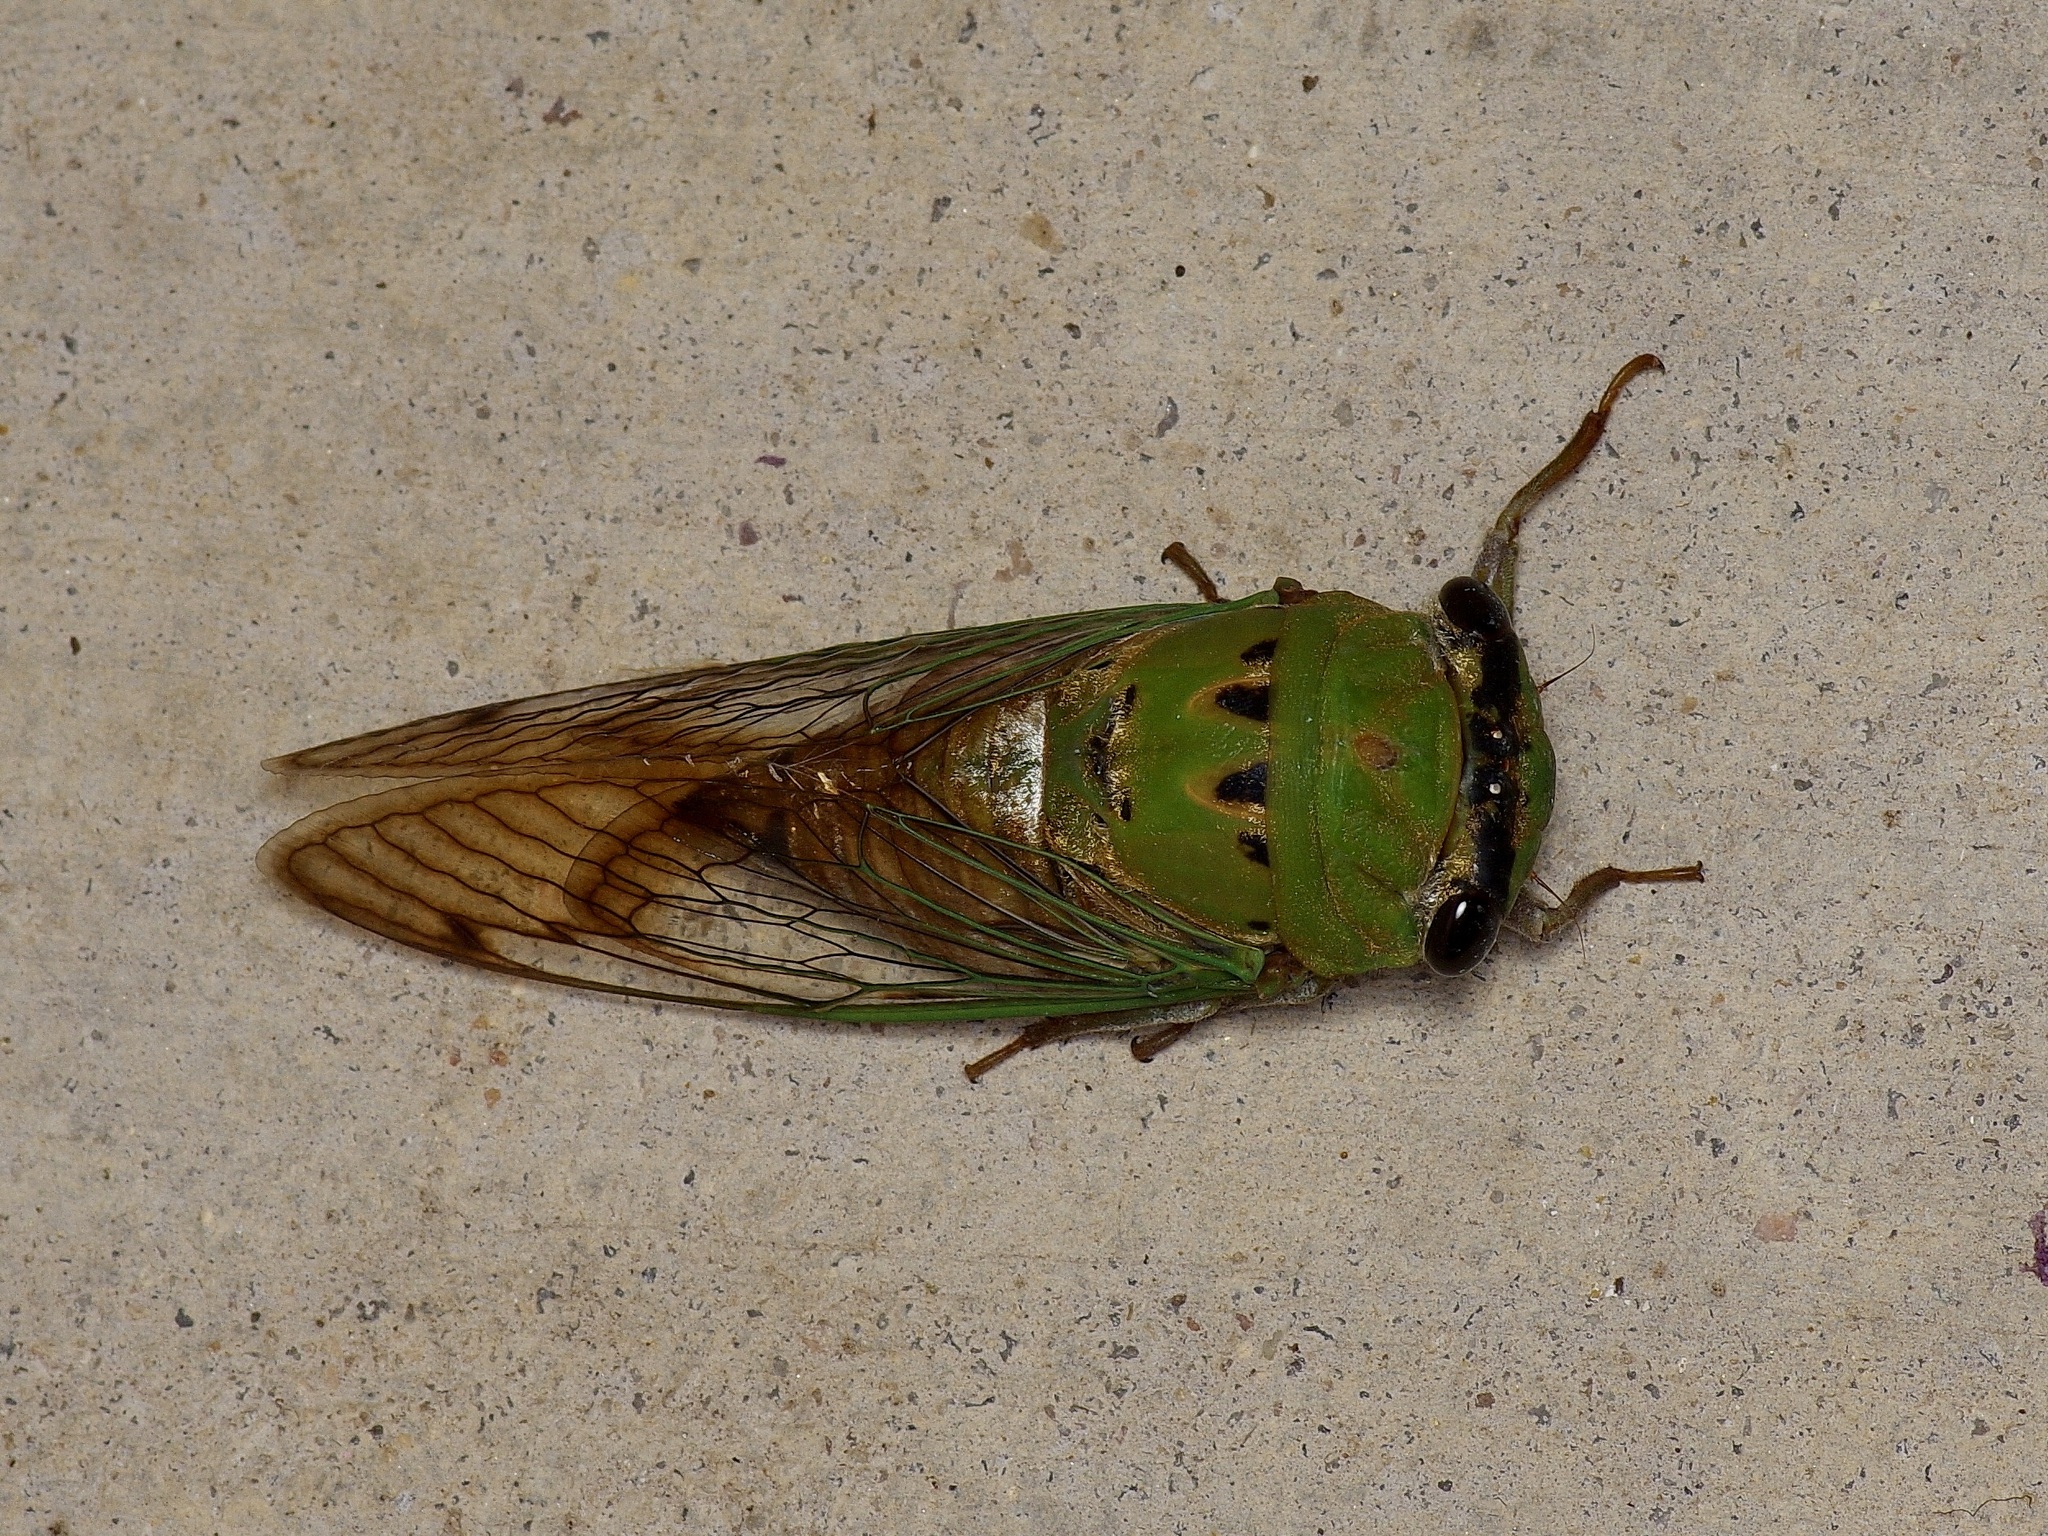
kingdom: Animalia
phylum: Arthropoda
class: Insecta
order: Hemiptera
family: Cicadidae
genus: Neotibicen
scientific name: Neotibicen superbus
